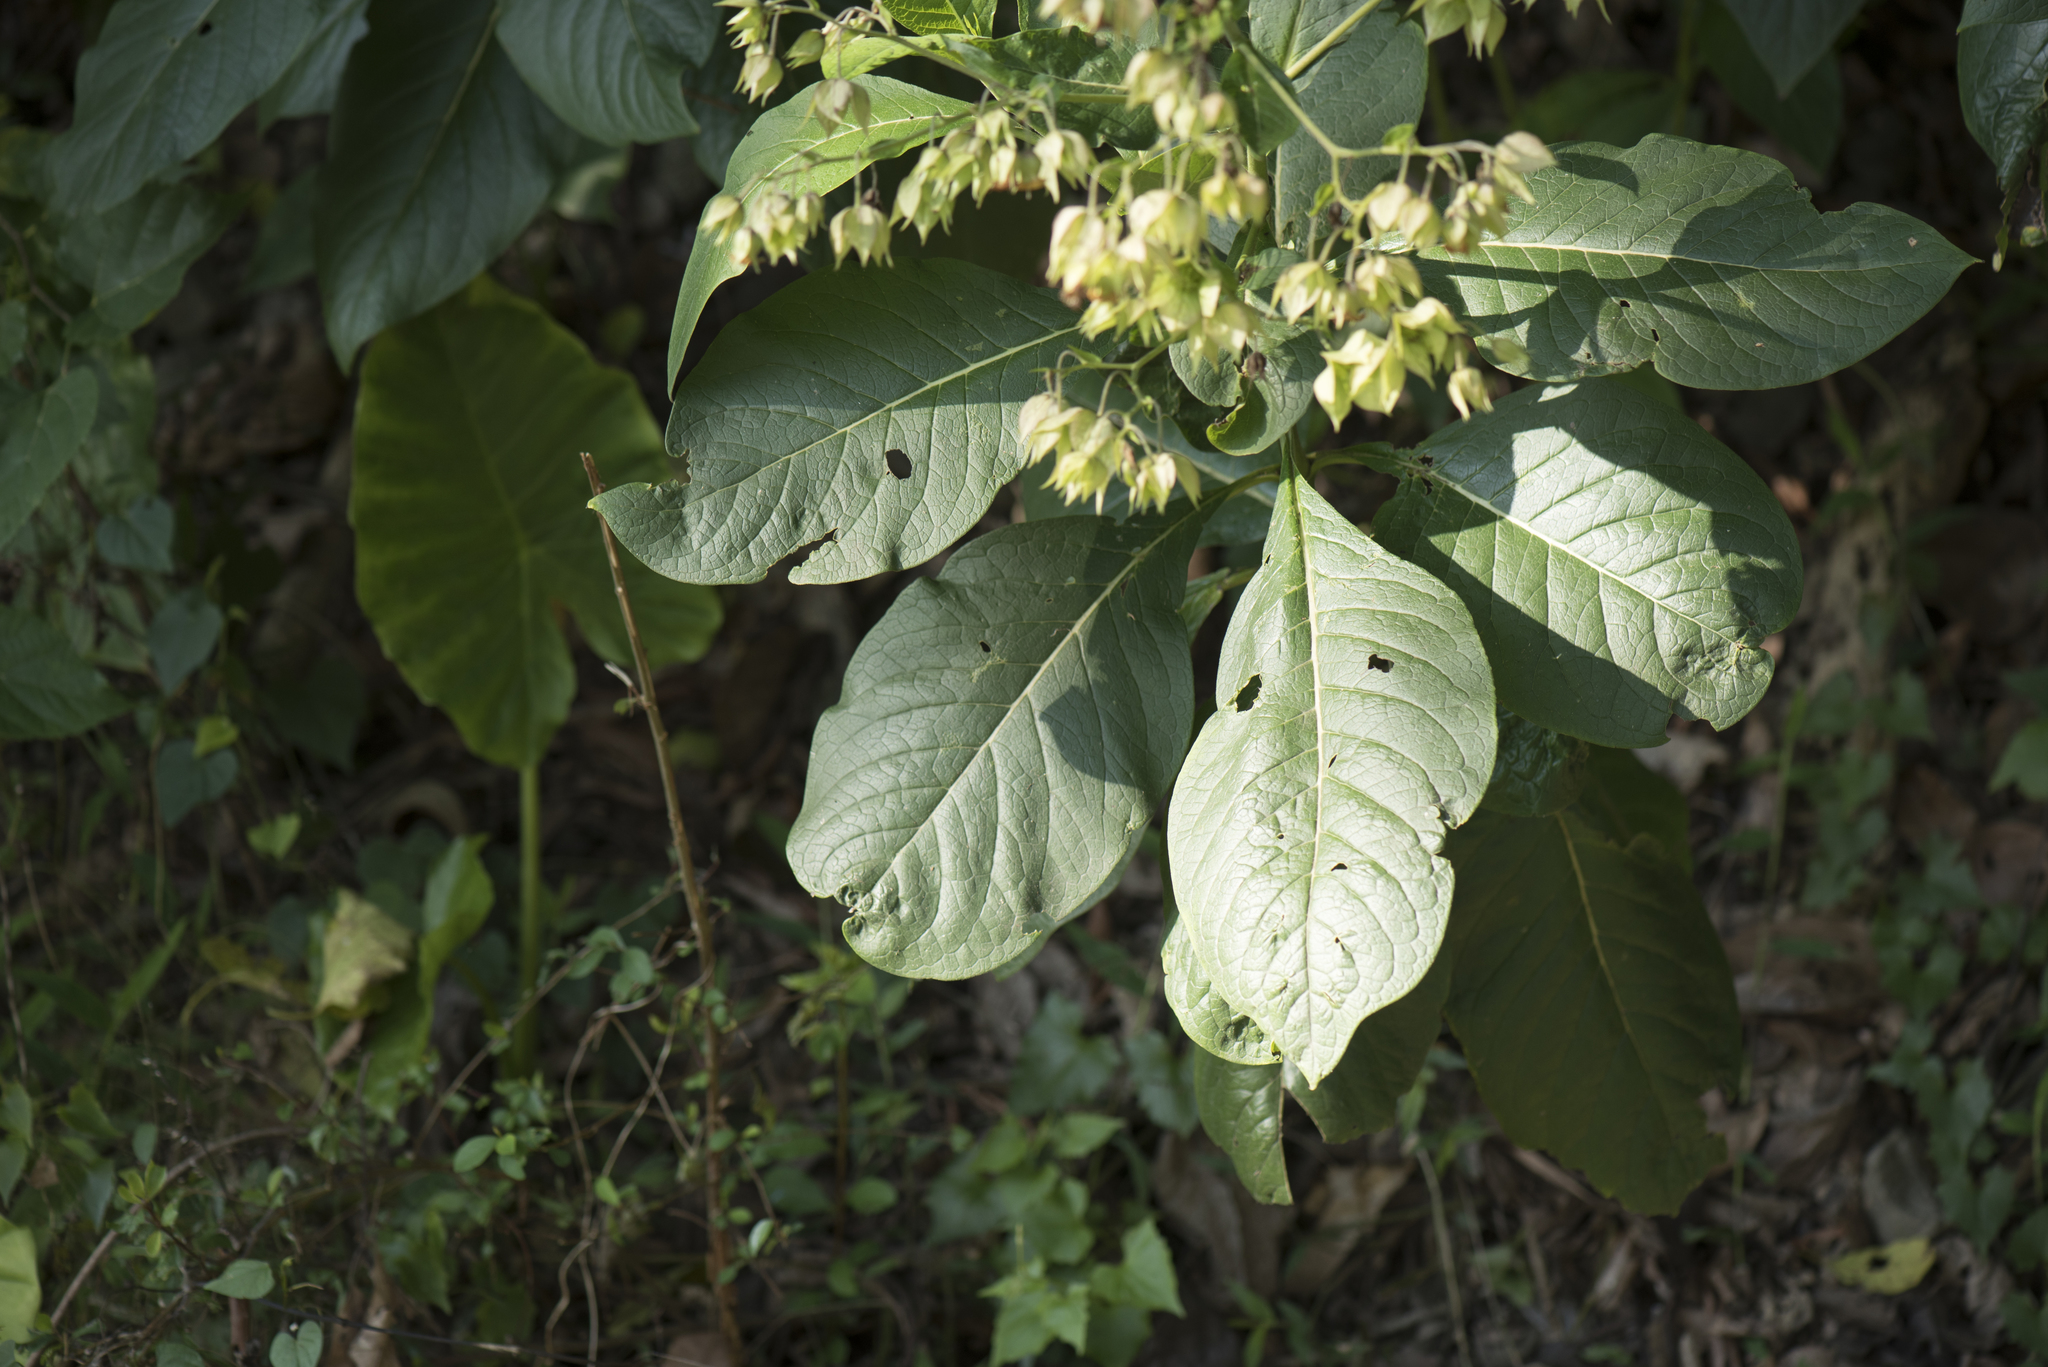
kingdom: Plantae
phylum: Tracheophyta
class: Magnoliopsida
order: Boraginales
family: Boraginaceae
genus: Trichodesma
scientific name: Trichodesma calycosum
